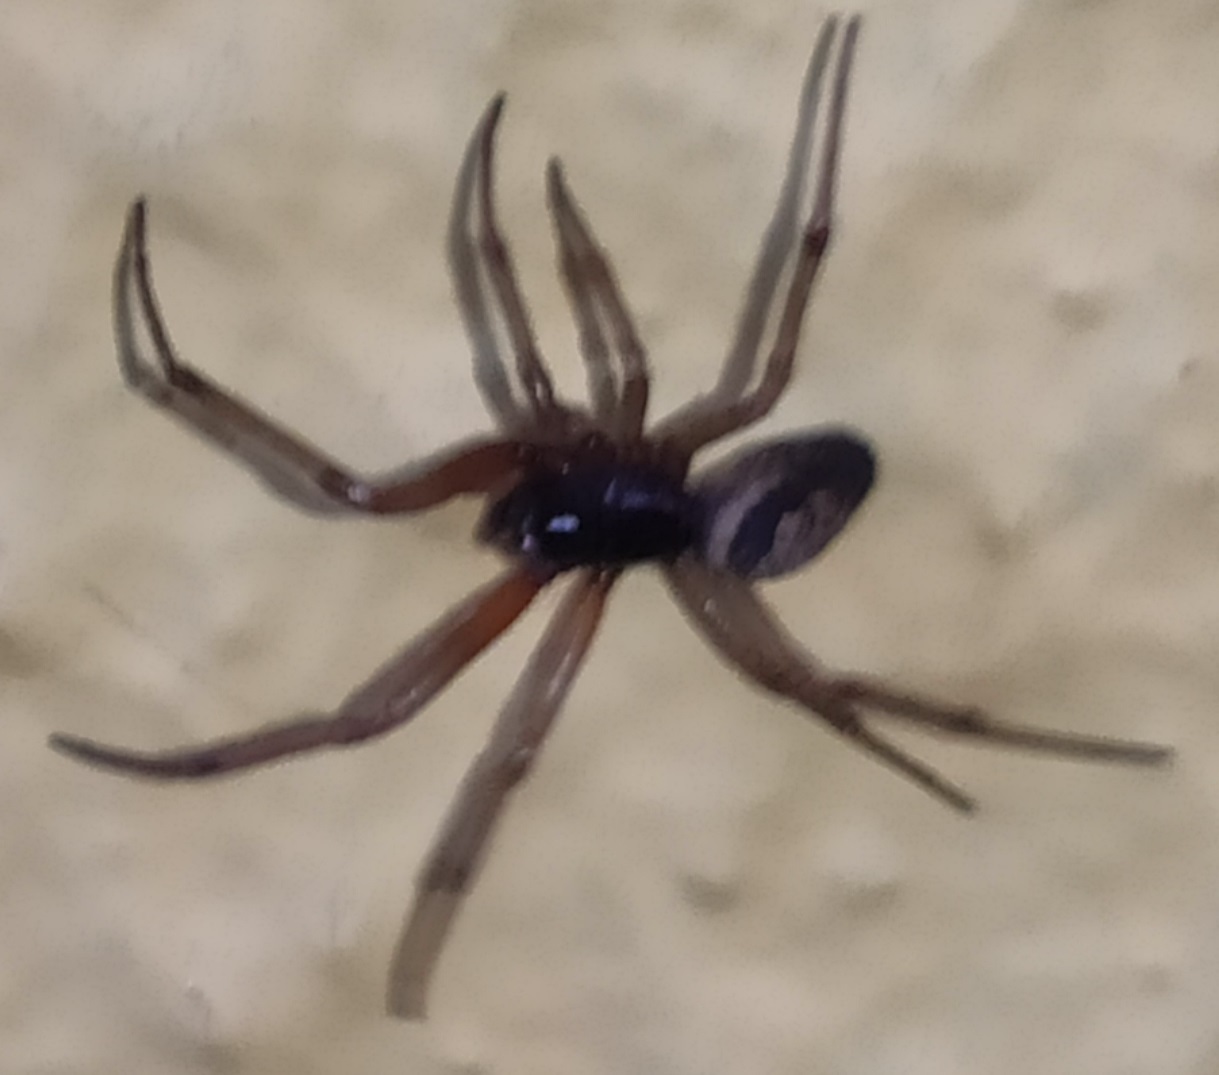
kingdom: Animalia
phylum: Arthropoda
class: Arachnida
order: Araneae
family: Theridiidae
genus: Steatoda
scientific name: Steatoda nobilis
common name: Cobweb weaver
